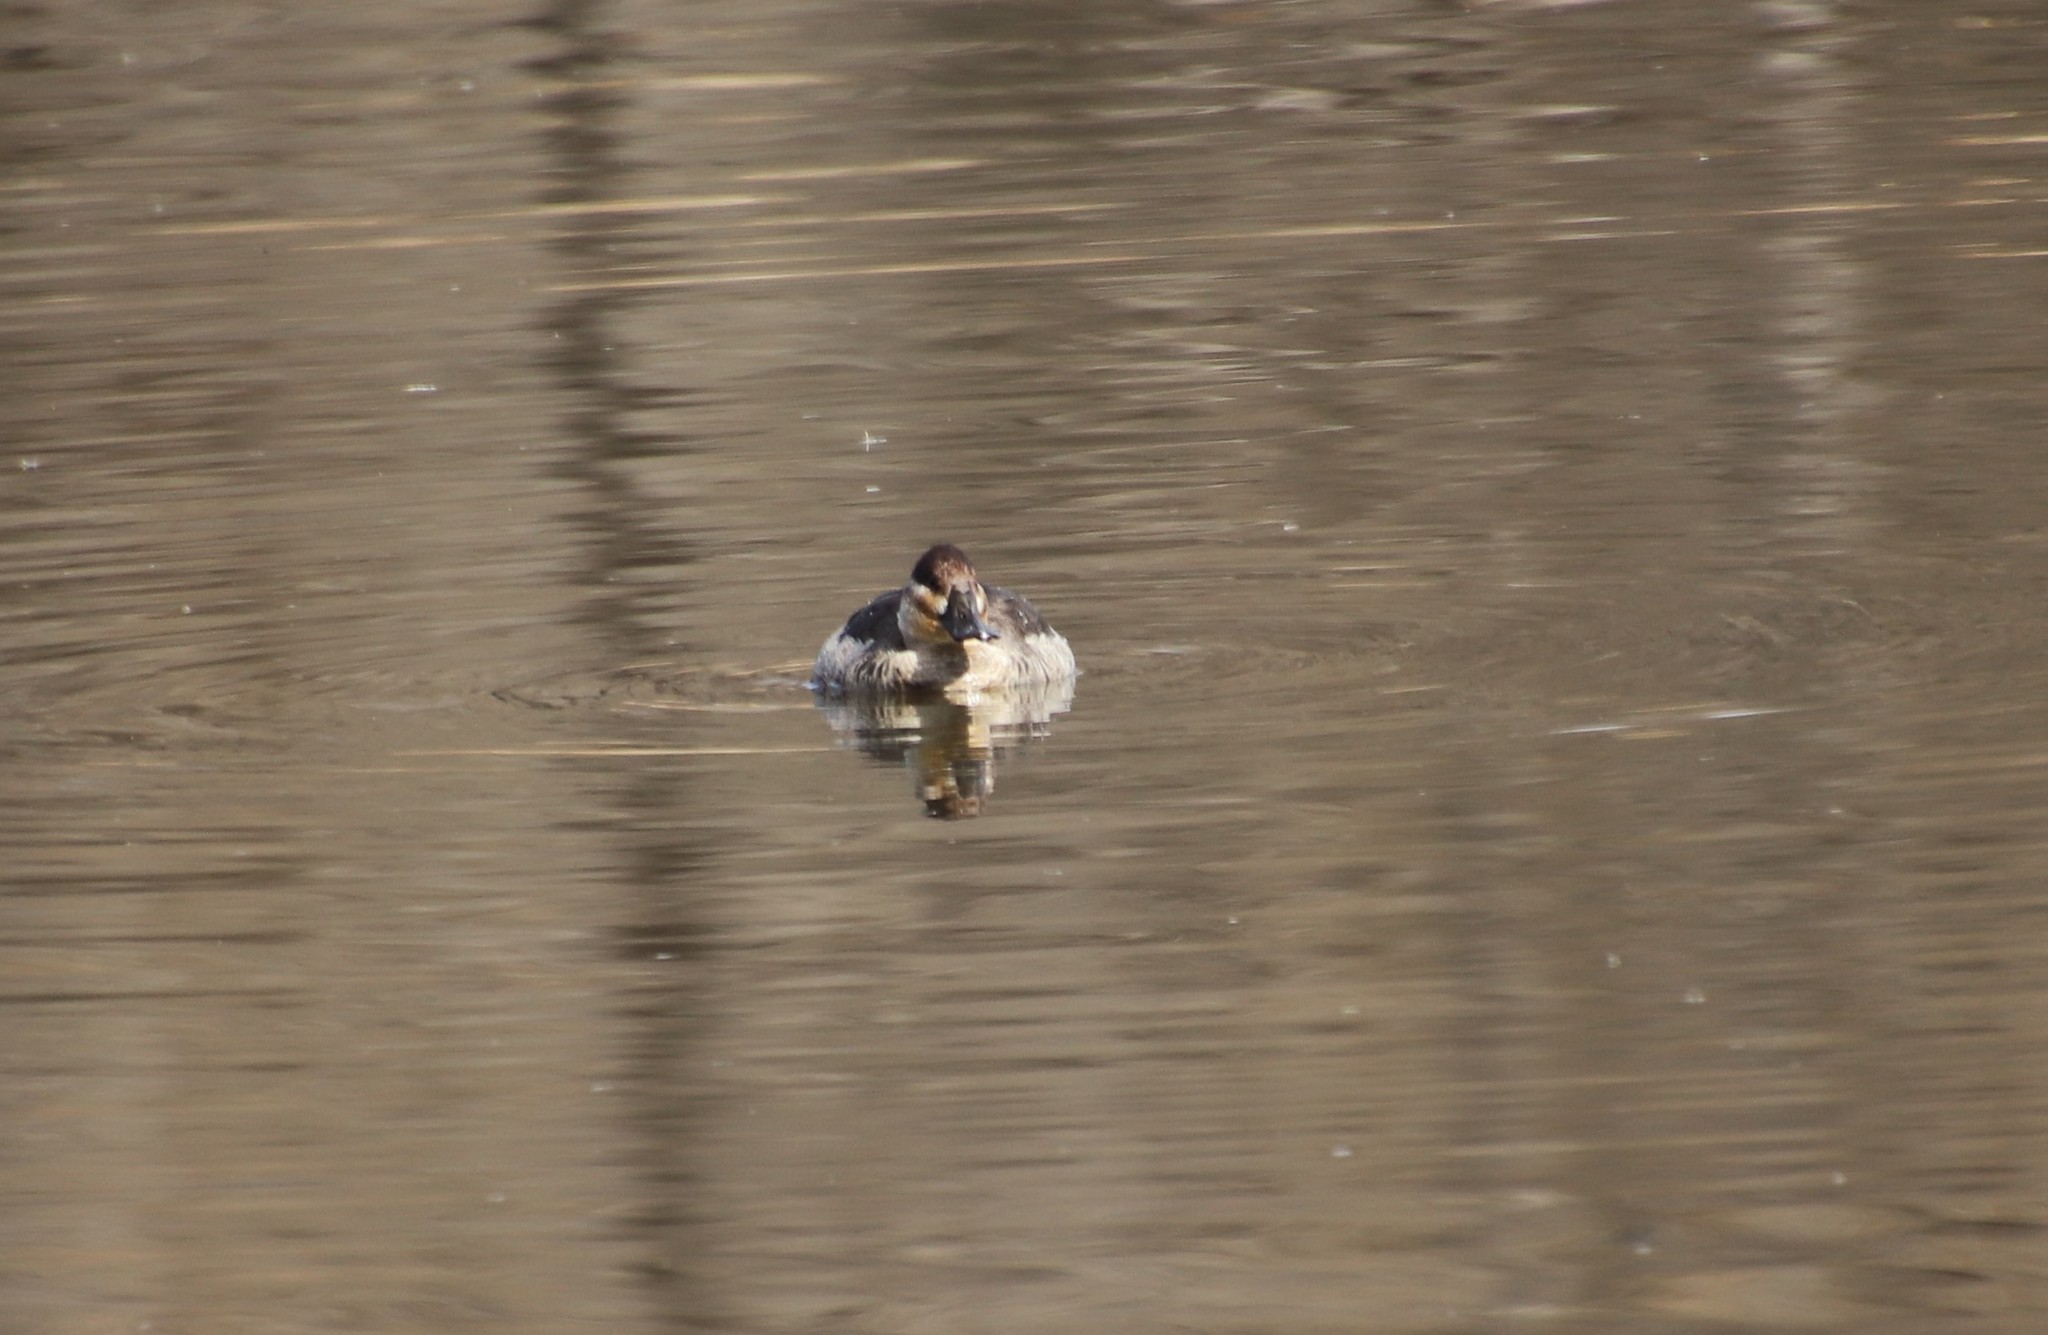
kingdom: Animalia
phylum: Chordata
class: Aves
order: Anseriformes
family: Anatidae
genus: Oxyura
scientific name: Oxyura jamaicensis
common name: Ruddy duck
